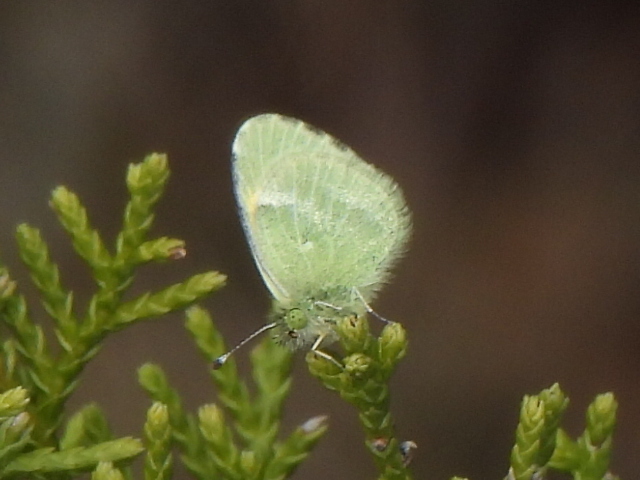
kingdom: Animalia
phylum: Arthropoda
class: Insecta
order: Lepidoptera
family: Pieridae
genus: Nathalis
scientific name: Nathalis iole
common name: Dainty sulphur
